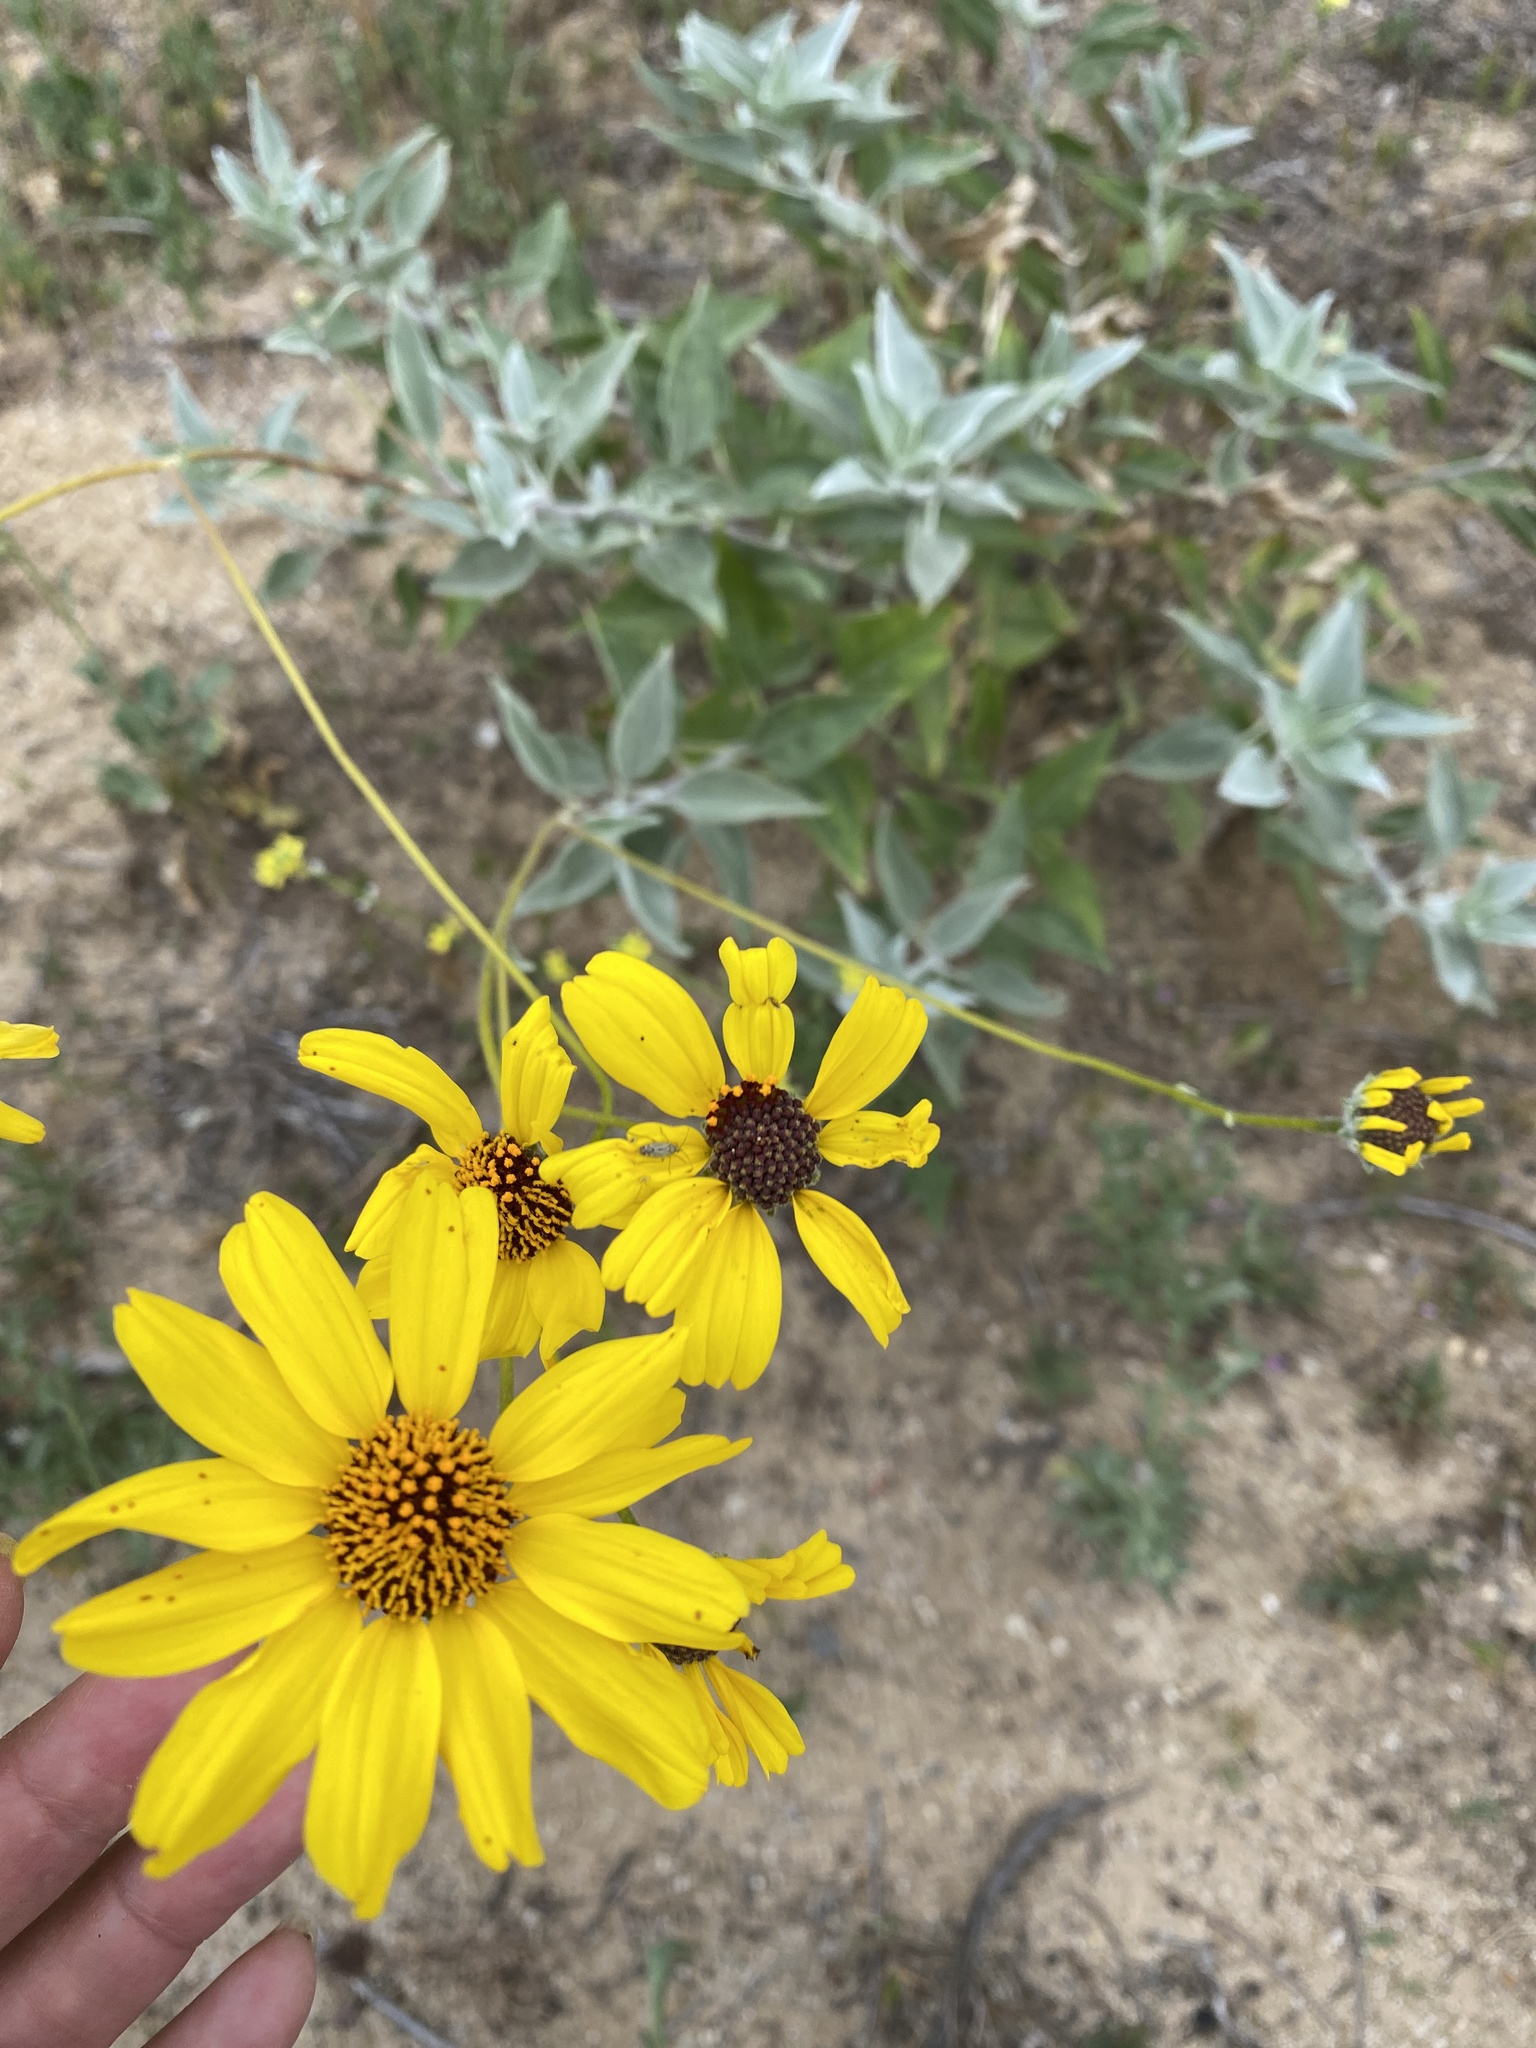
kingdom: Plantae
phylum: Tracheophyta
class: Magnoliopsida
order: Asterales
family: Asteraceae
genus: Encelia
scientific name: Encelia farinosa
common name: Brittlebush
